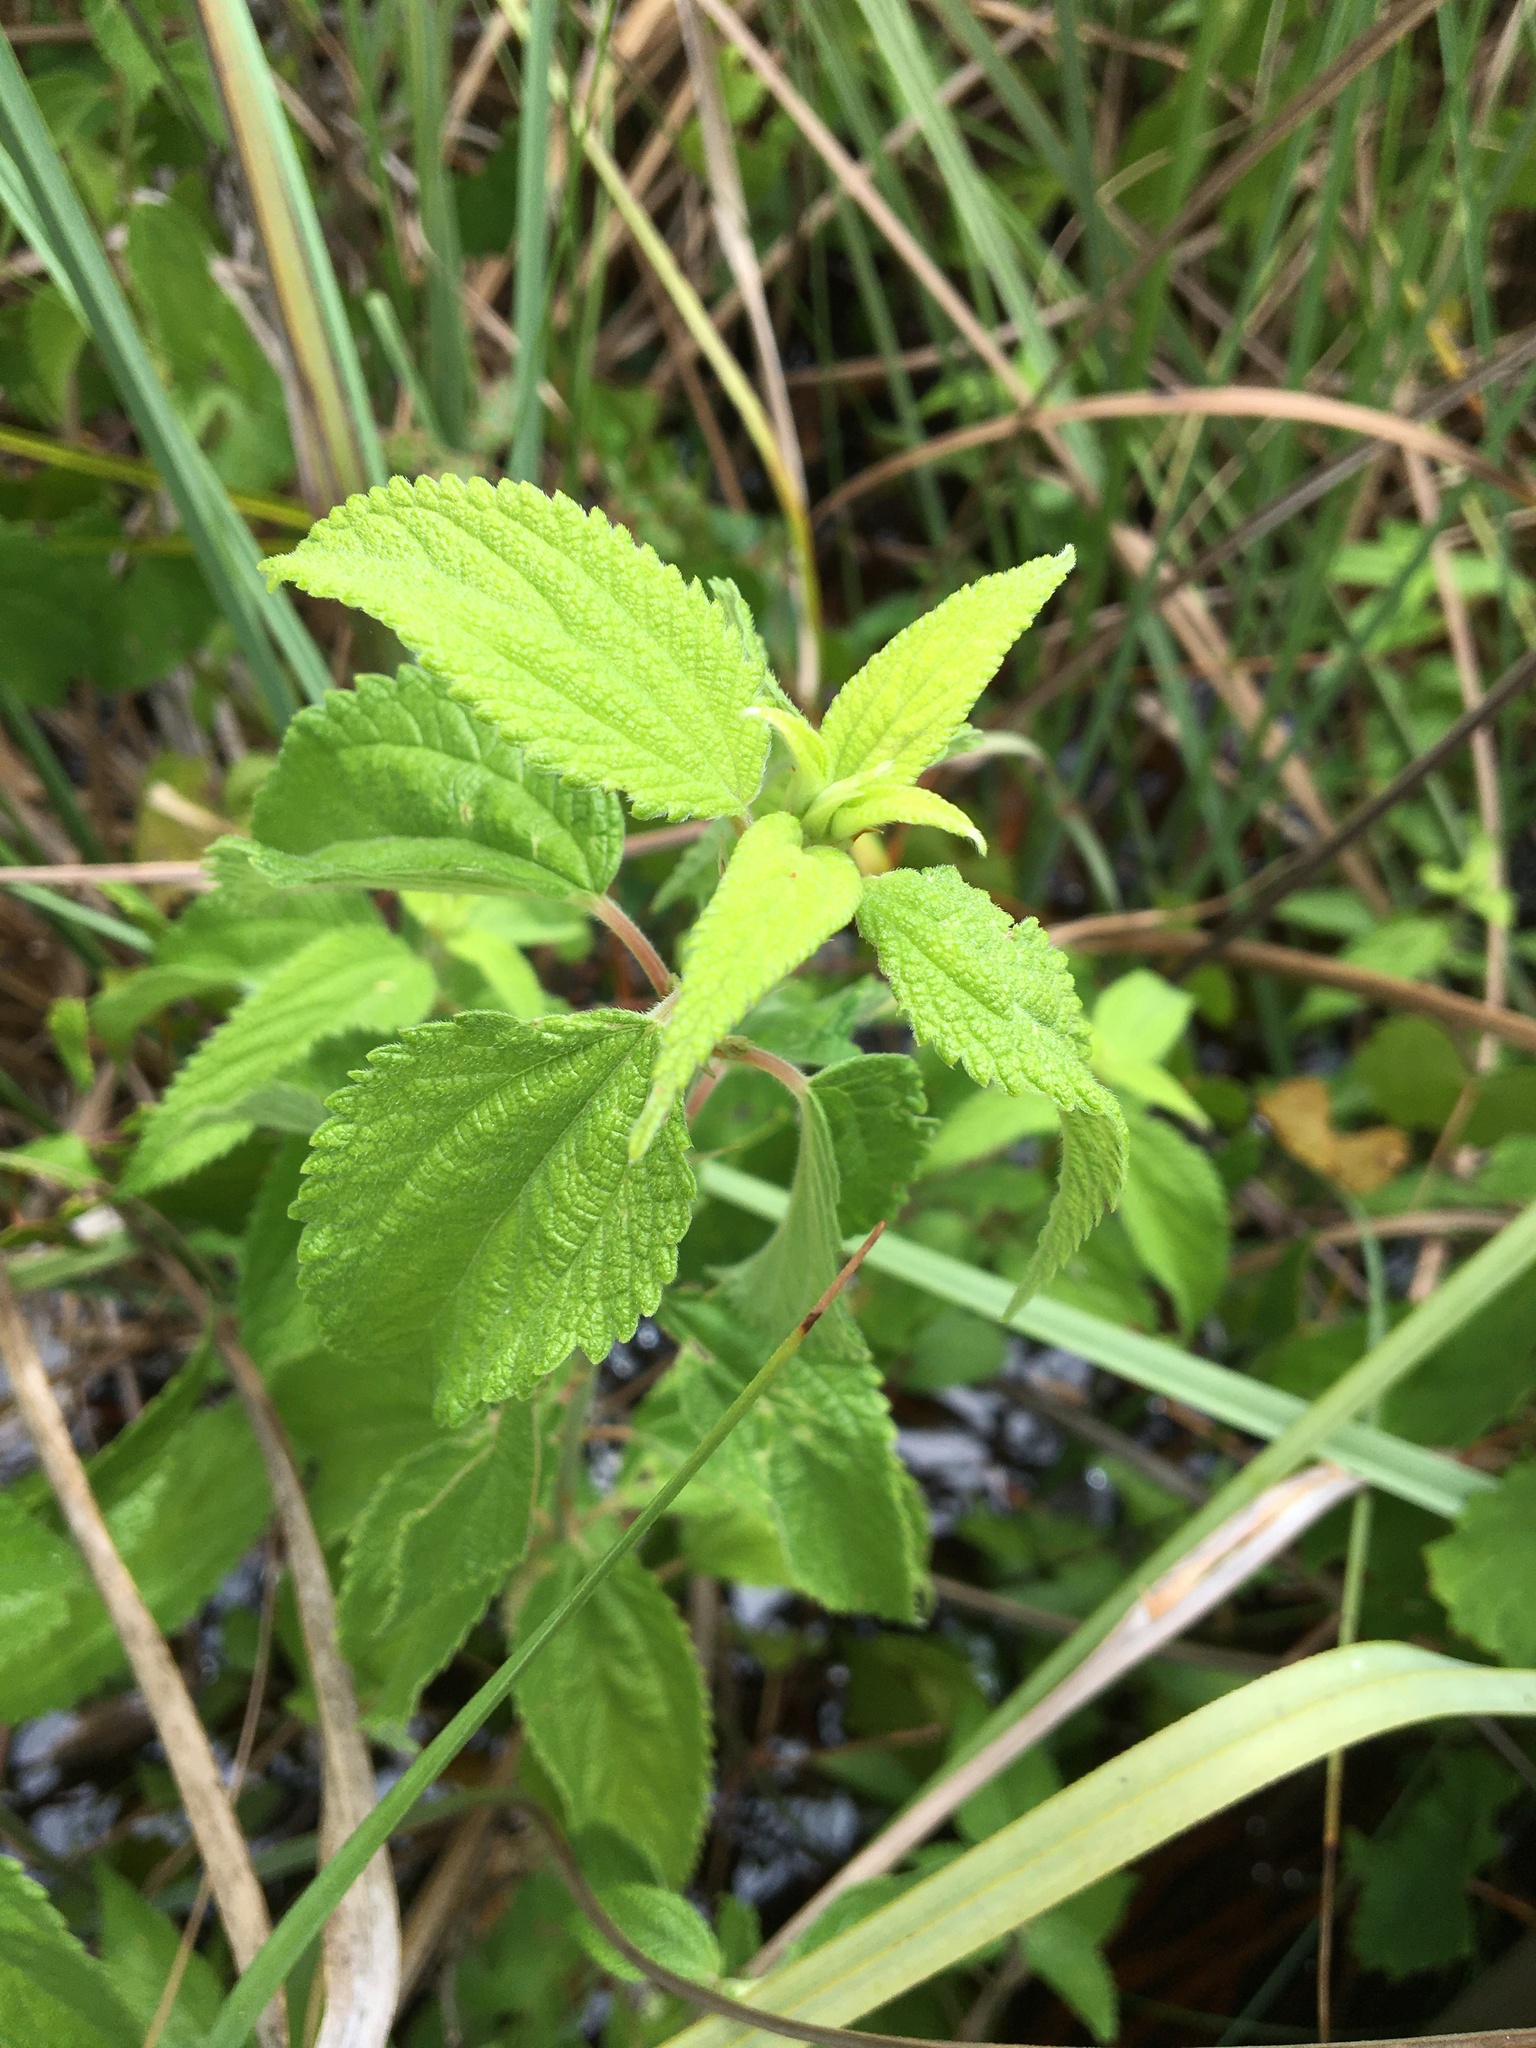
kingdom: Plantae
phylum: Tracheophyta
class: Magnoliopsida
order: Rosales
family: Urticaceae
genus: Boehmeria
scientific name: Boehmeria cylindrica
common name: Bog-hemp
